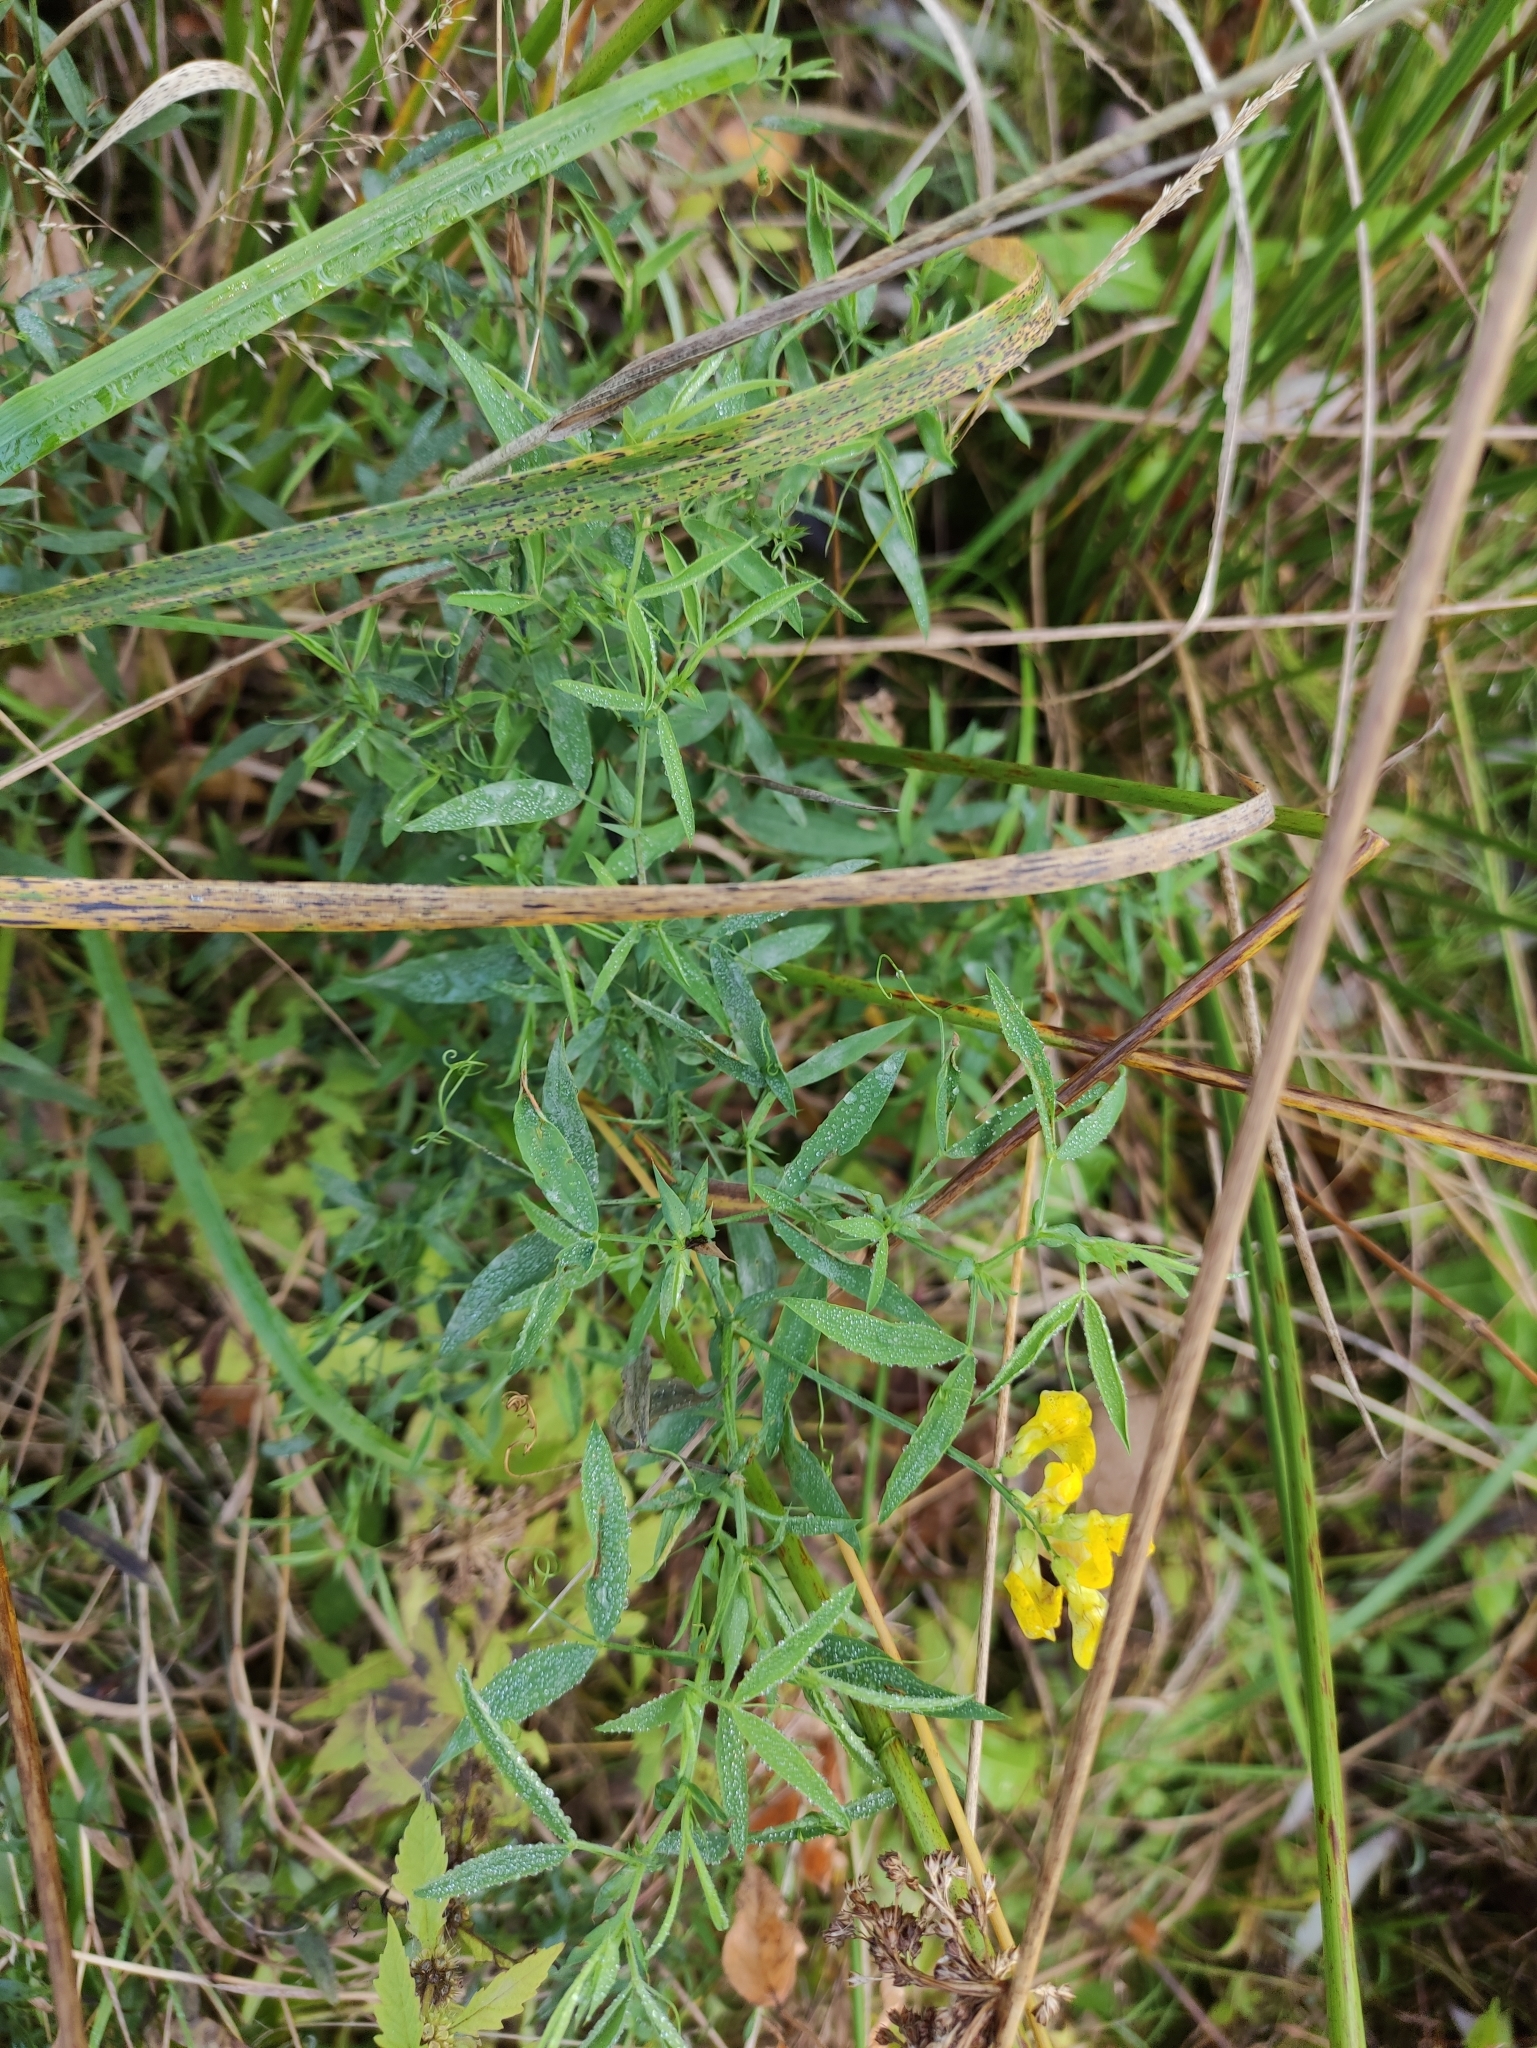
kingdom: Plantae
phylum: Tracheophyta
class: Magnoliopsida
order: Fabales
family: Fabaceae
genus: Lathyrus
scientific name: Lathyrus pratensis
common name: Meadow vetchling
